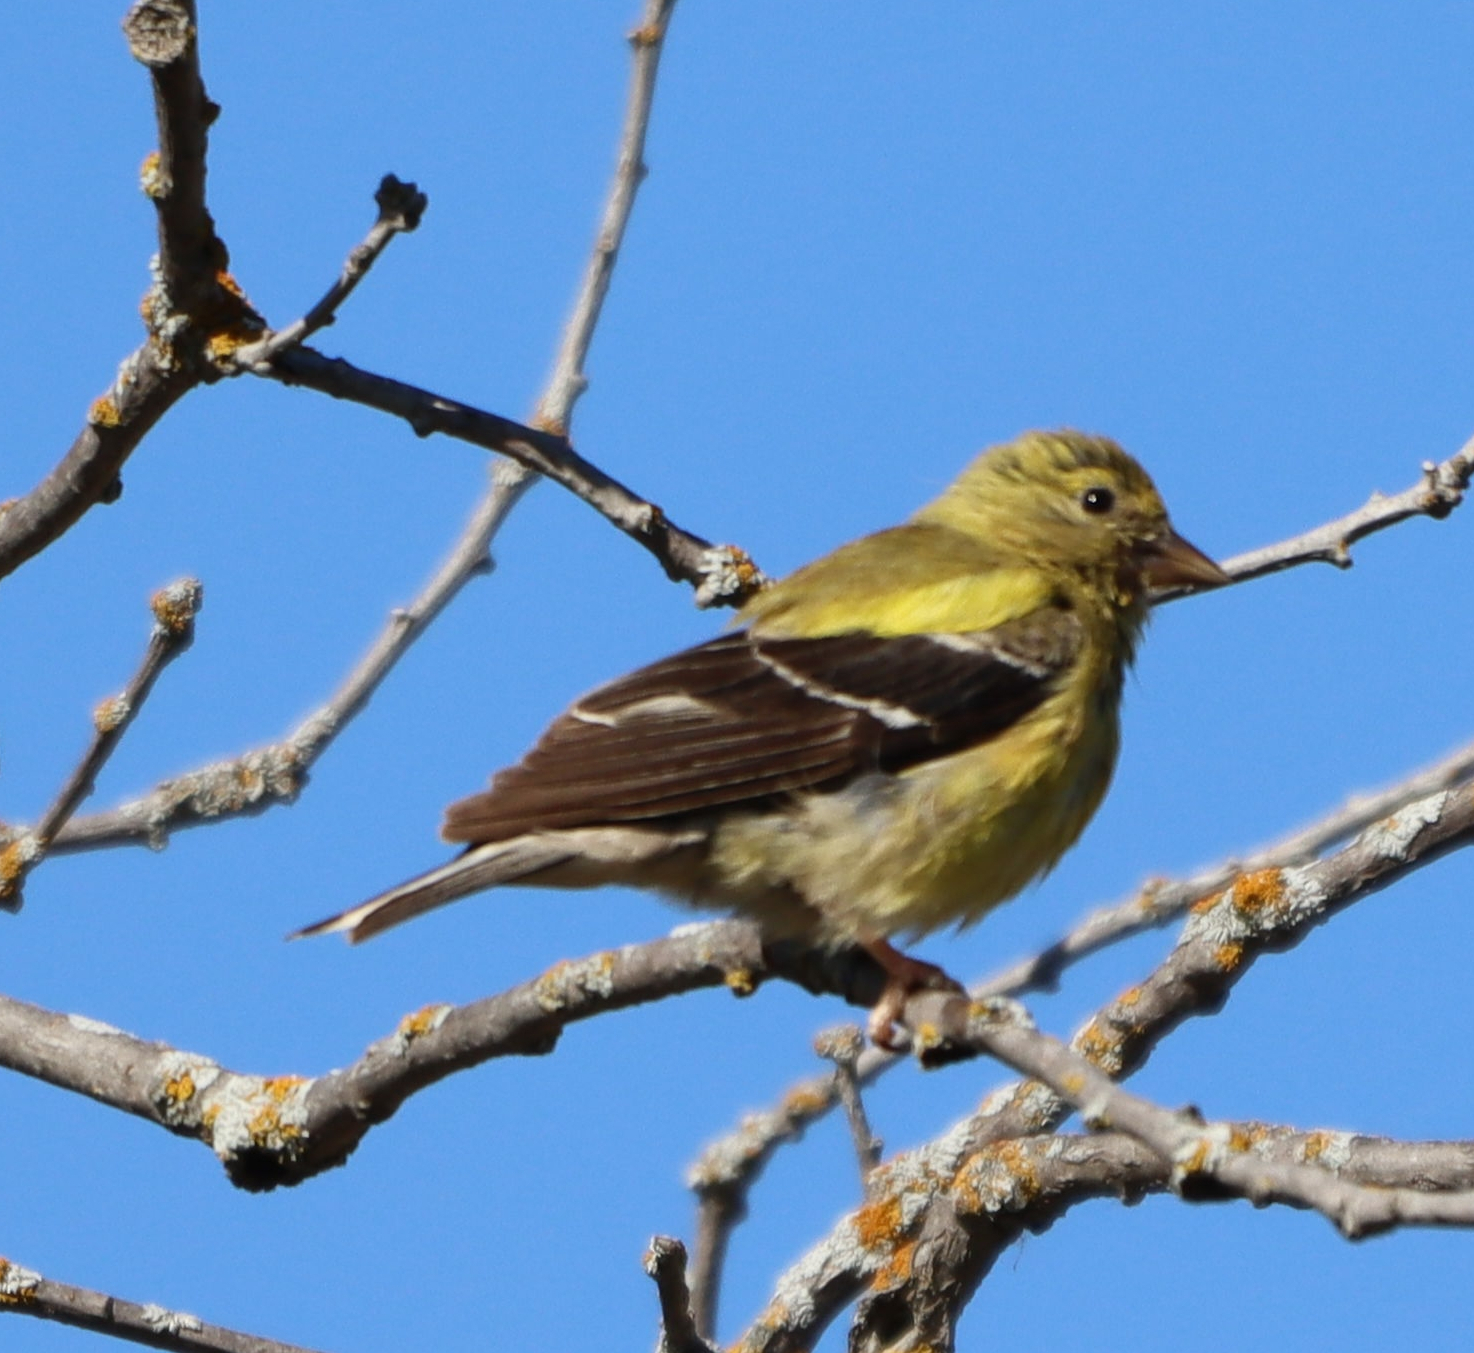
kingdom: Animalia
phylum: Chordata
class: Aves
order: Passeriformes
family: Fringillidae
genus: Spinus
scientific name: Spinus tristis
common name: American goldfinch
